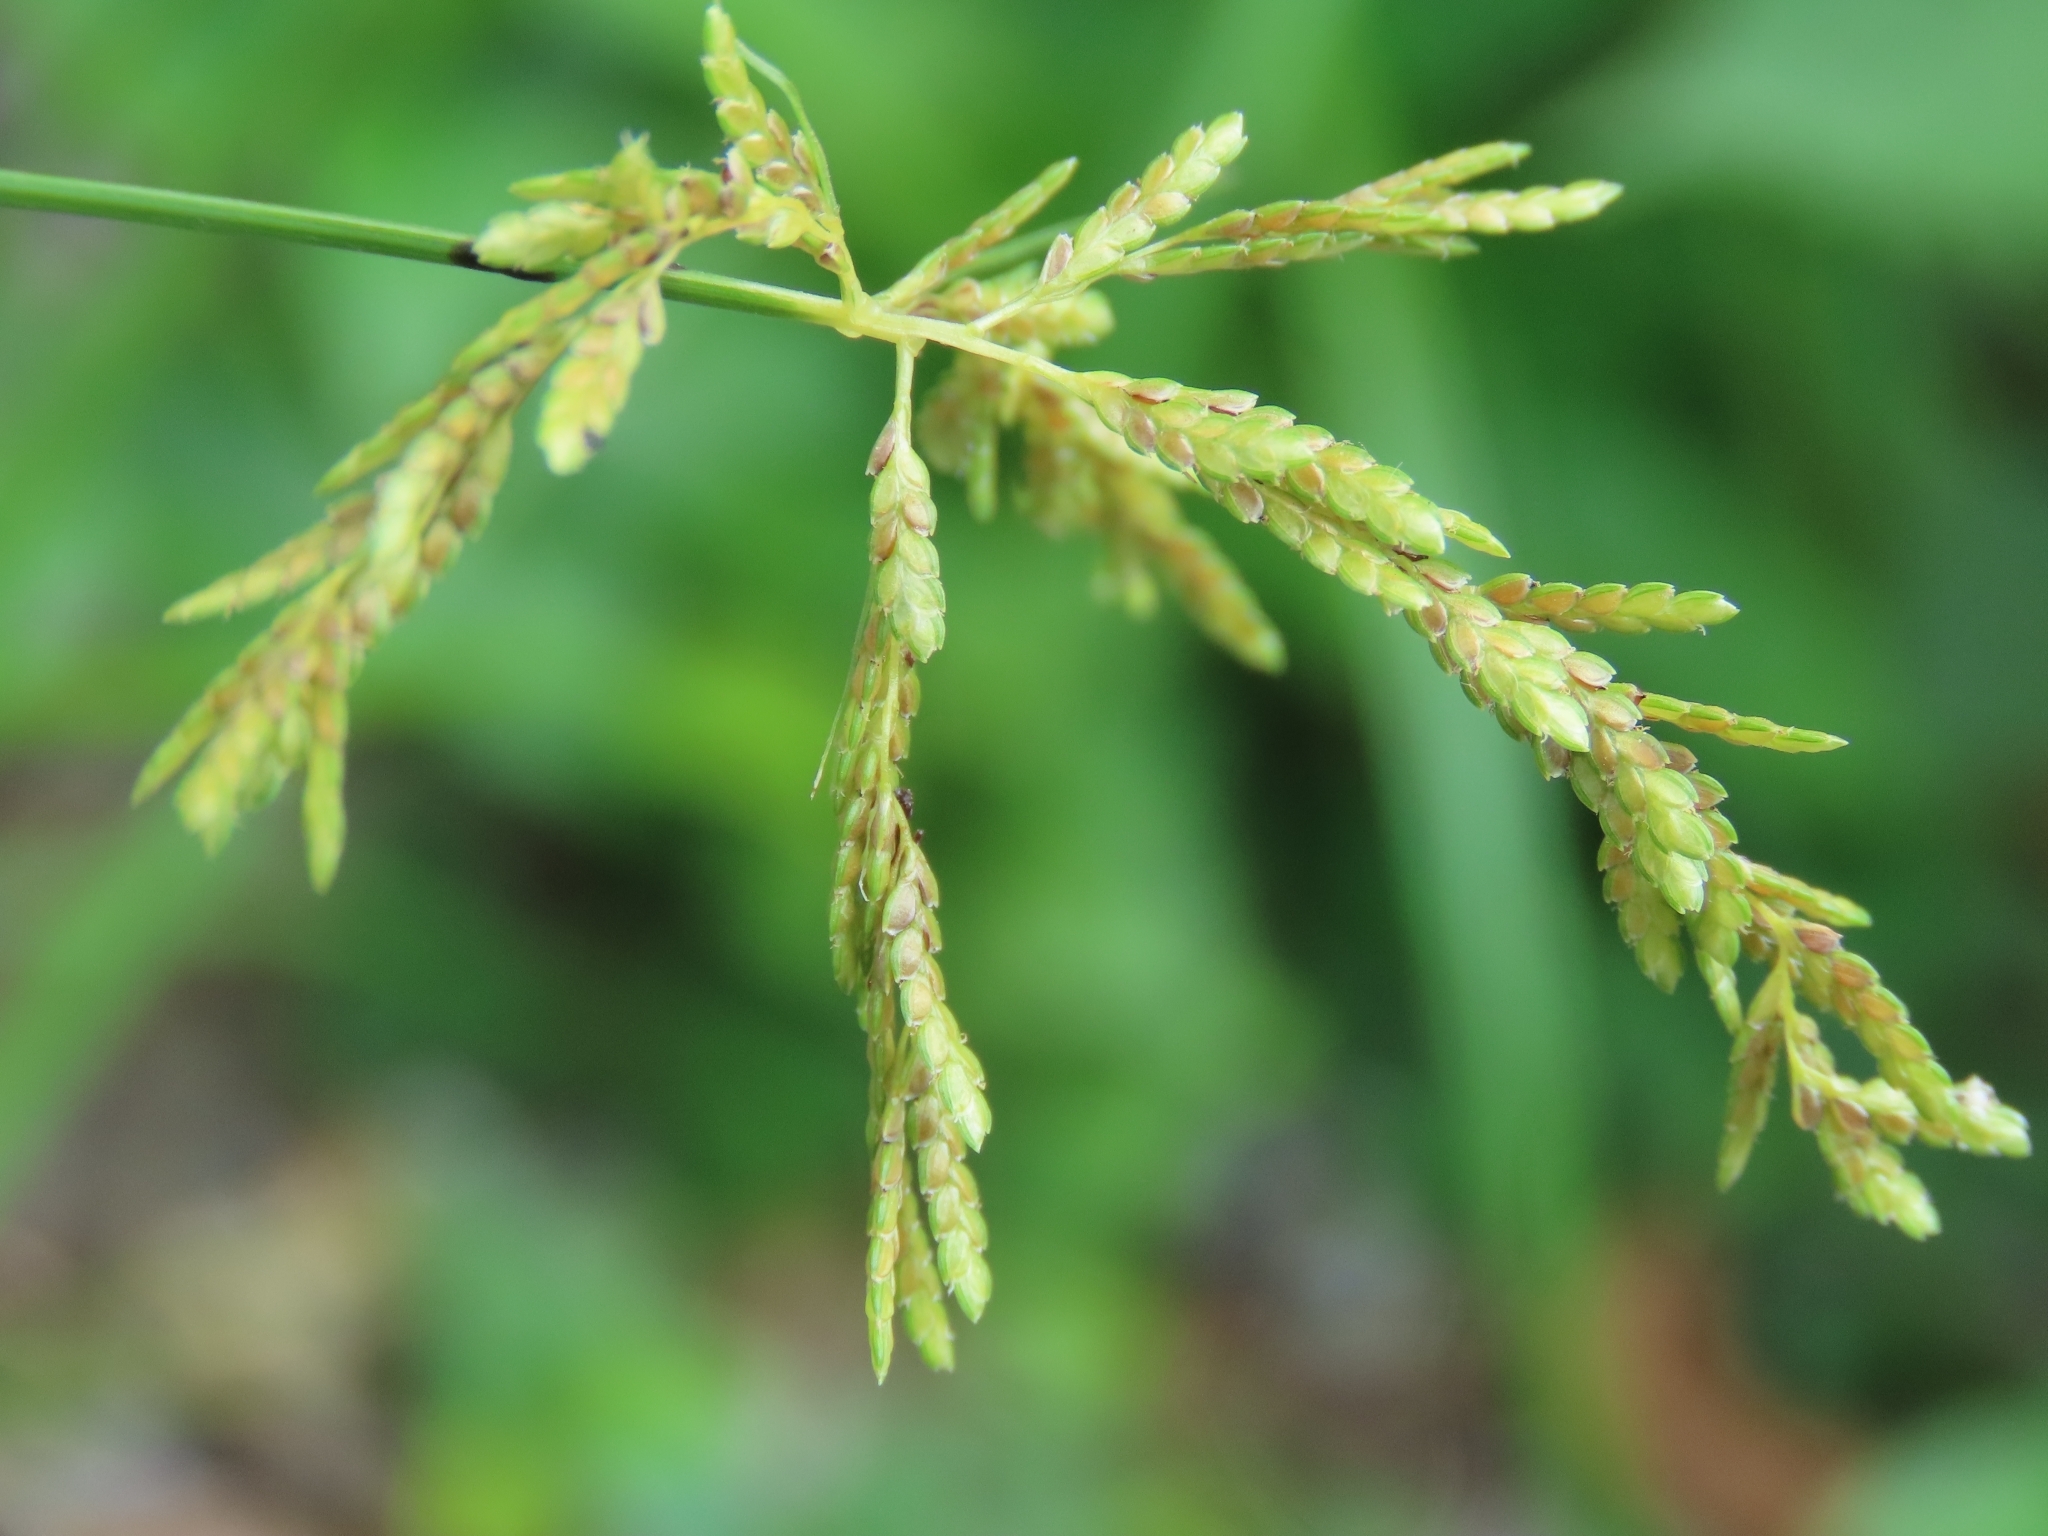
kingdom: Plantae
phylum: Tracheophyta
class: Liliopsida
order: Poales
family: Cyperaceae
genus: Cyperus
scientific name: Cyperus iria
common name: Ricefield flatsedge
